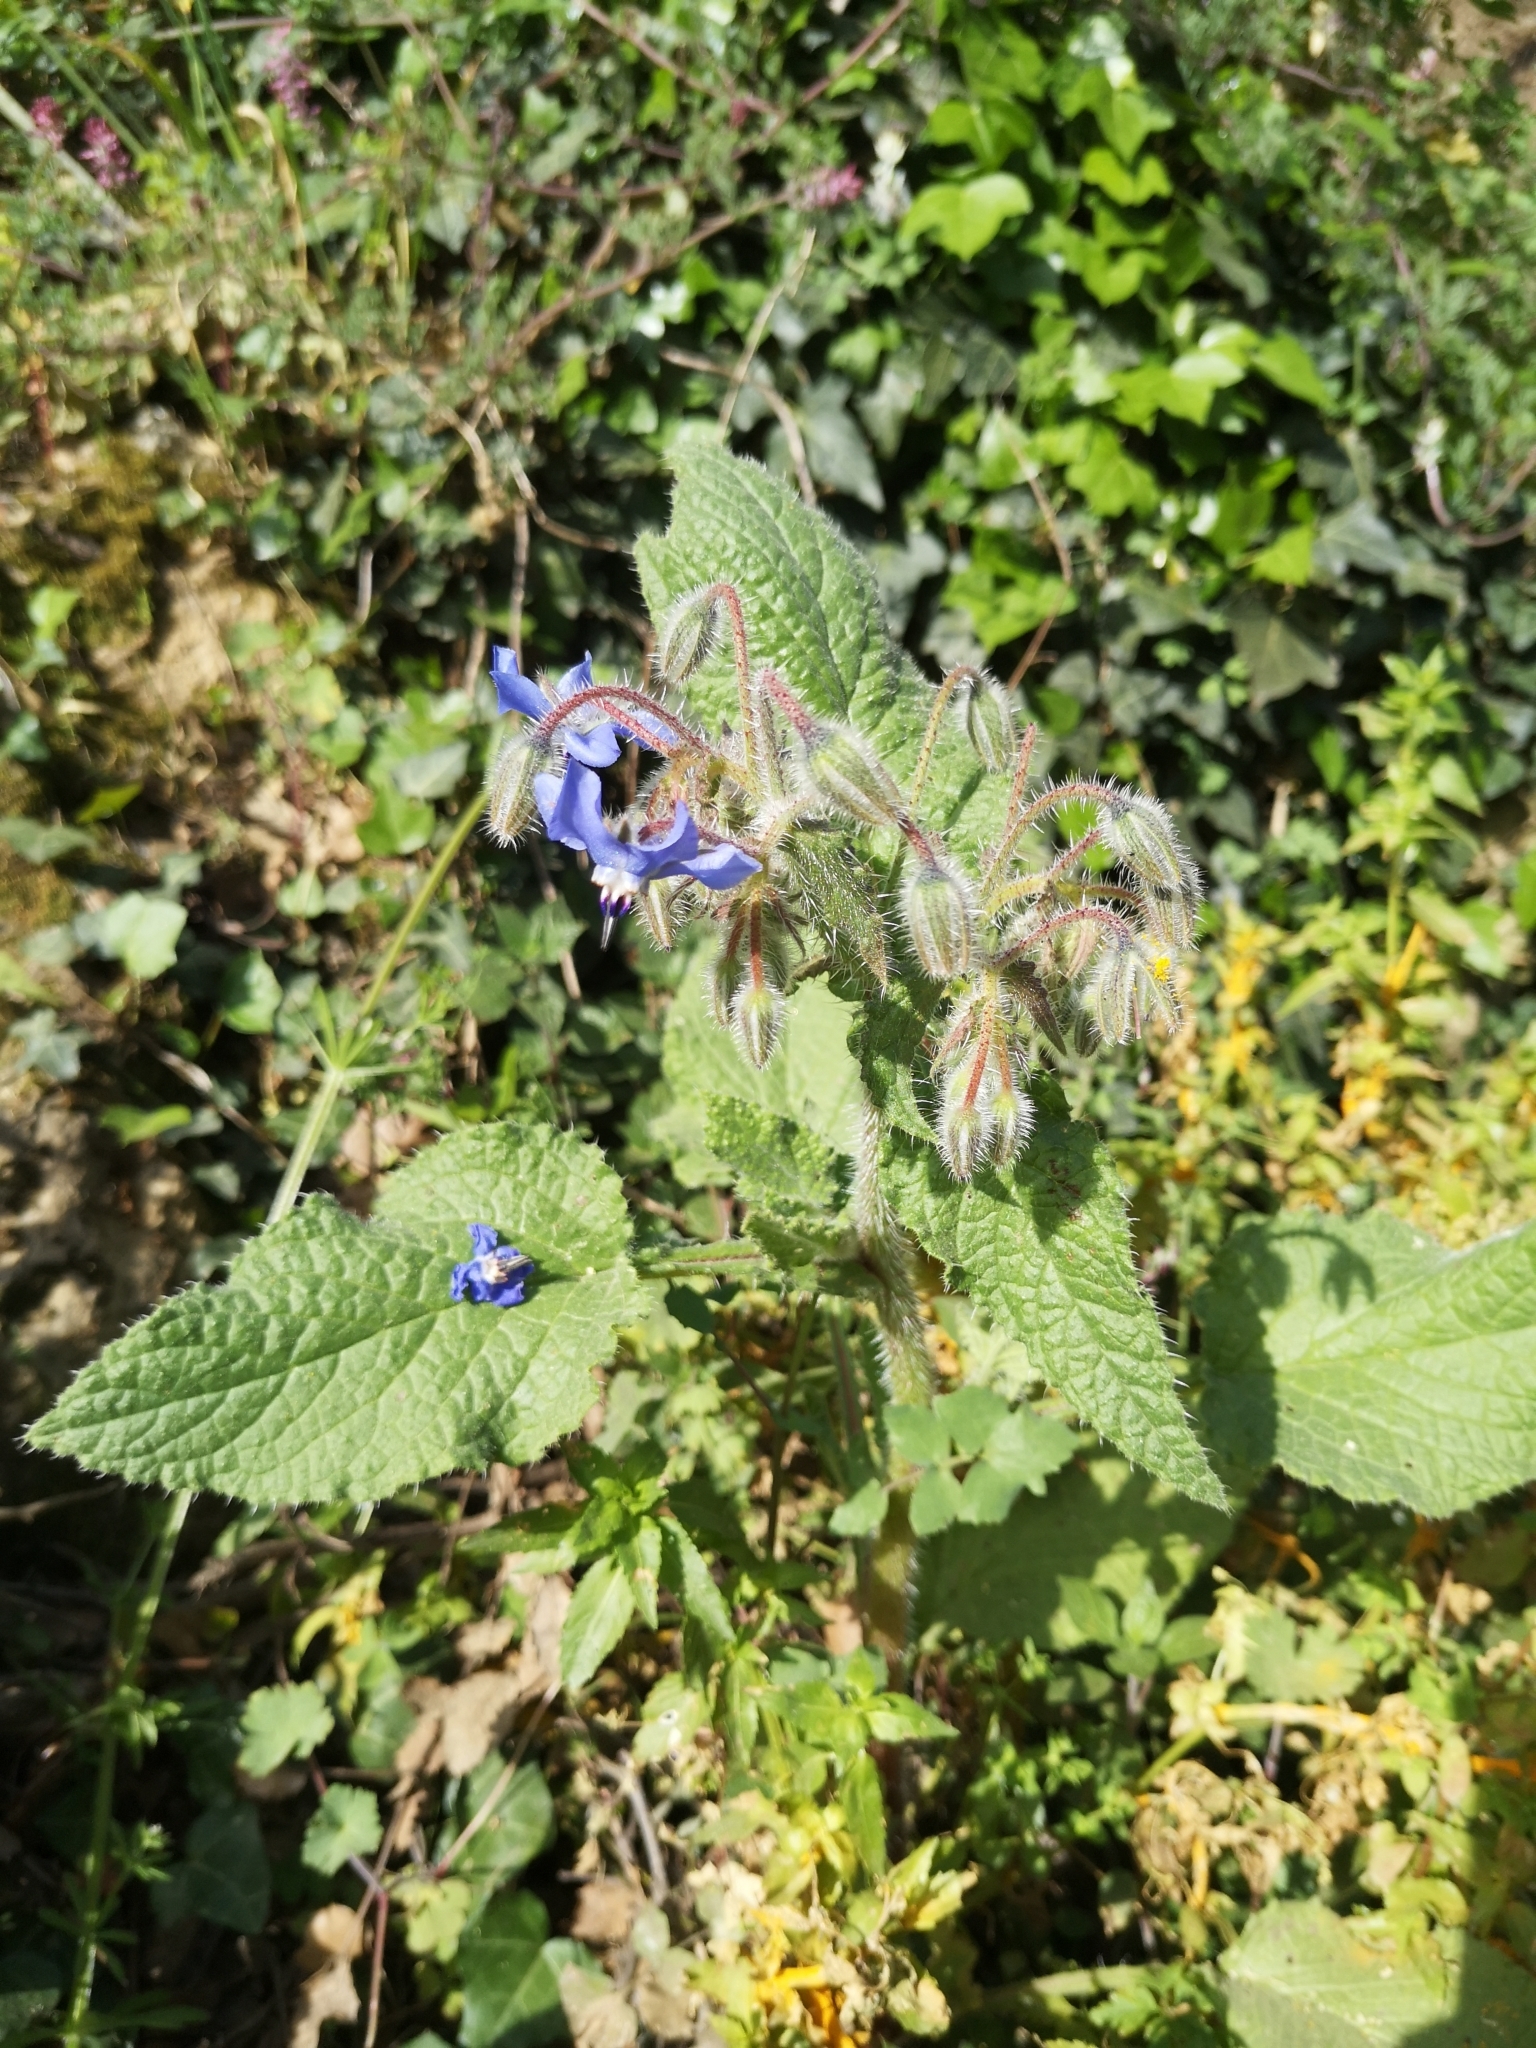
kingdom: Plantae
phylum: Tracheophyta
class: Magnoliopsida
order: Boraginales
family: Boraginaceae
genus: Borago
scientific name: Borago officinalis
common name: Borage
